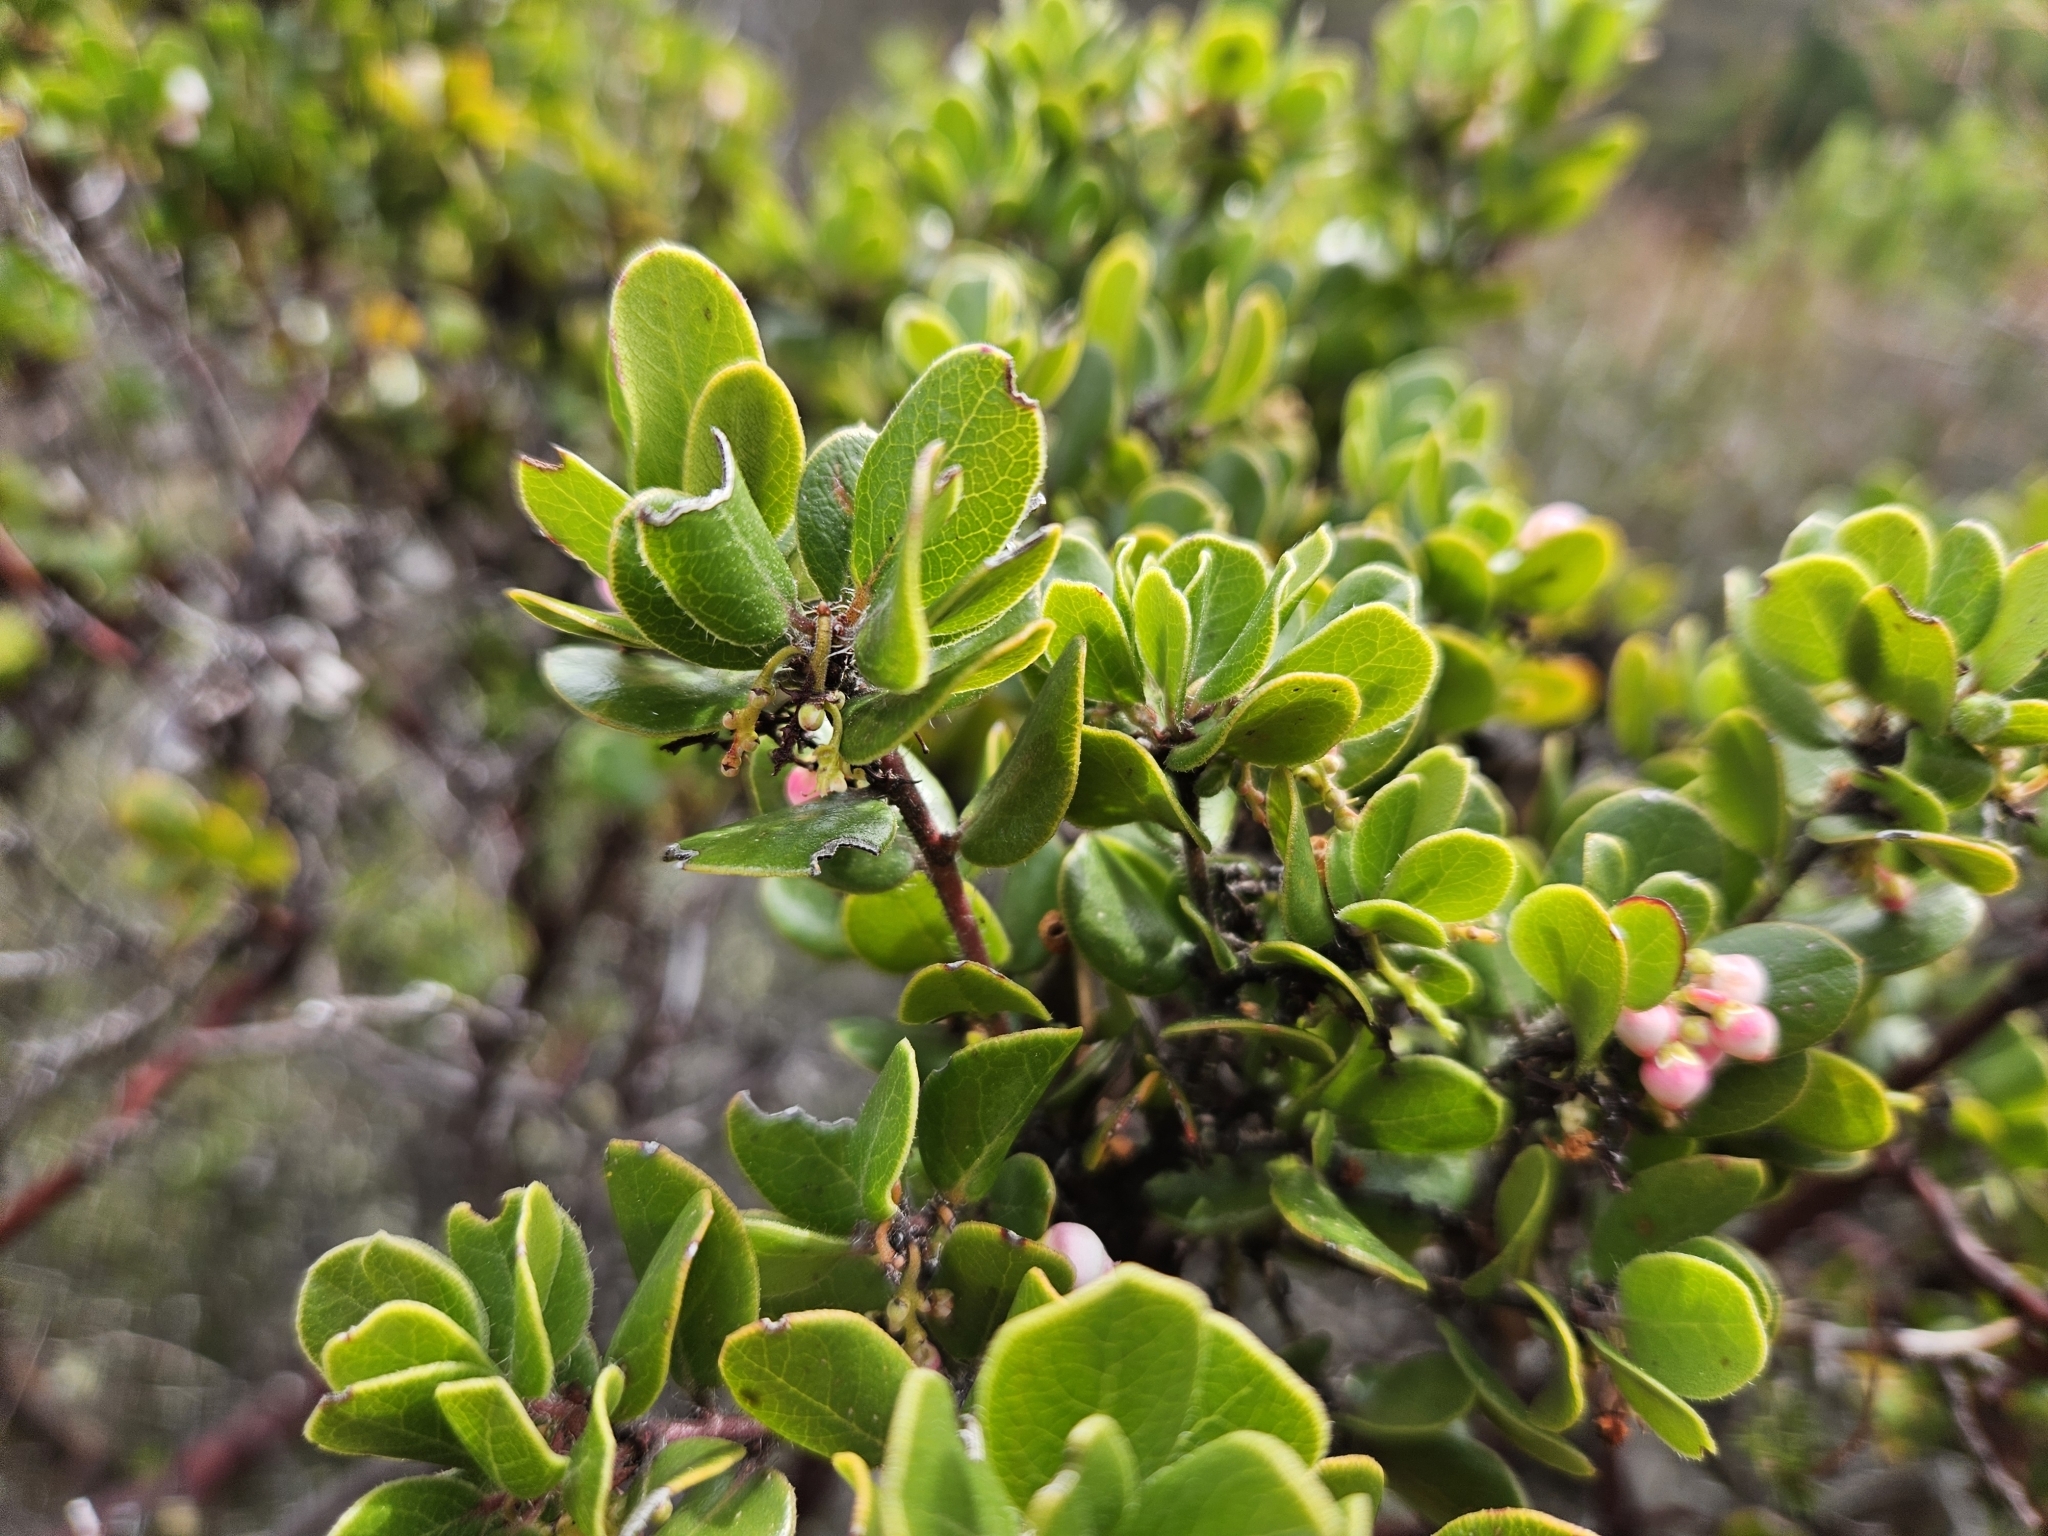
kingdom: Plantae
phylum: Tracheophyta
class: Magnoliopsida
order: Ericales
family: Ericaceae
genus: Arctostaphylos
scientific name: Arctostaphylos nummularia
